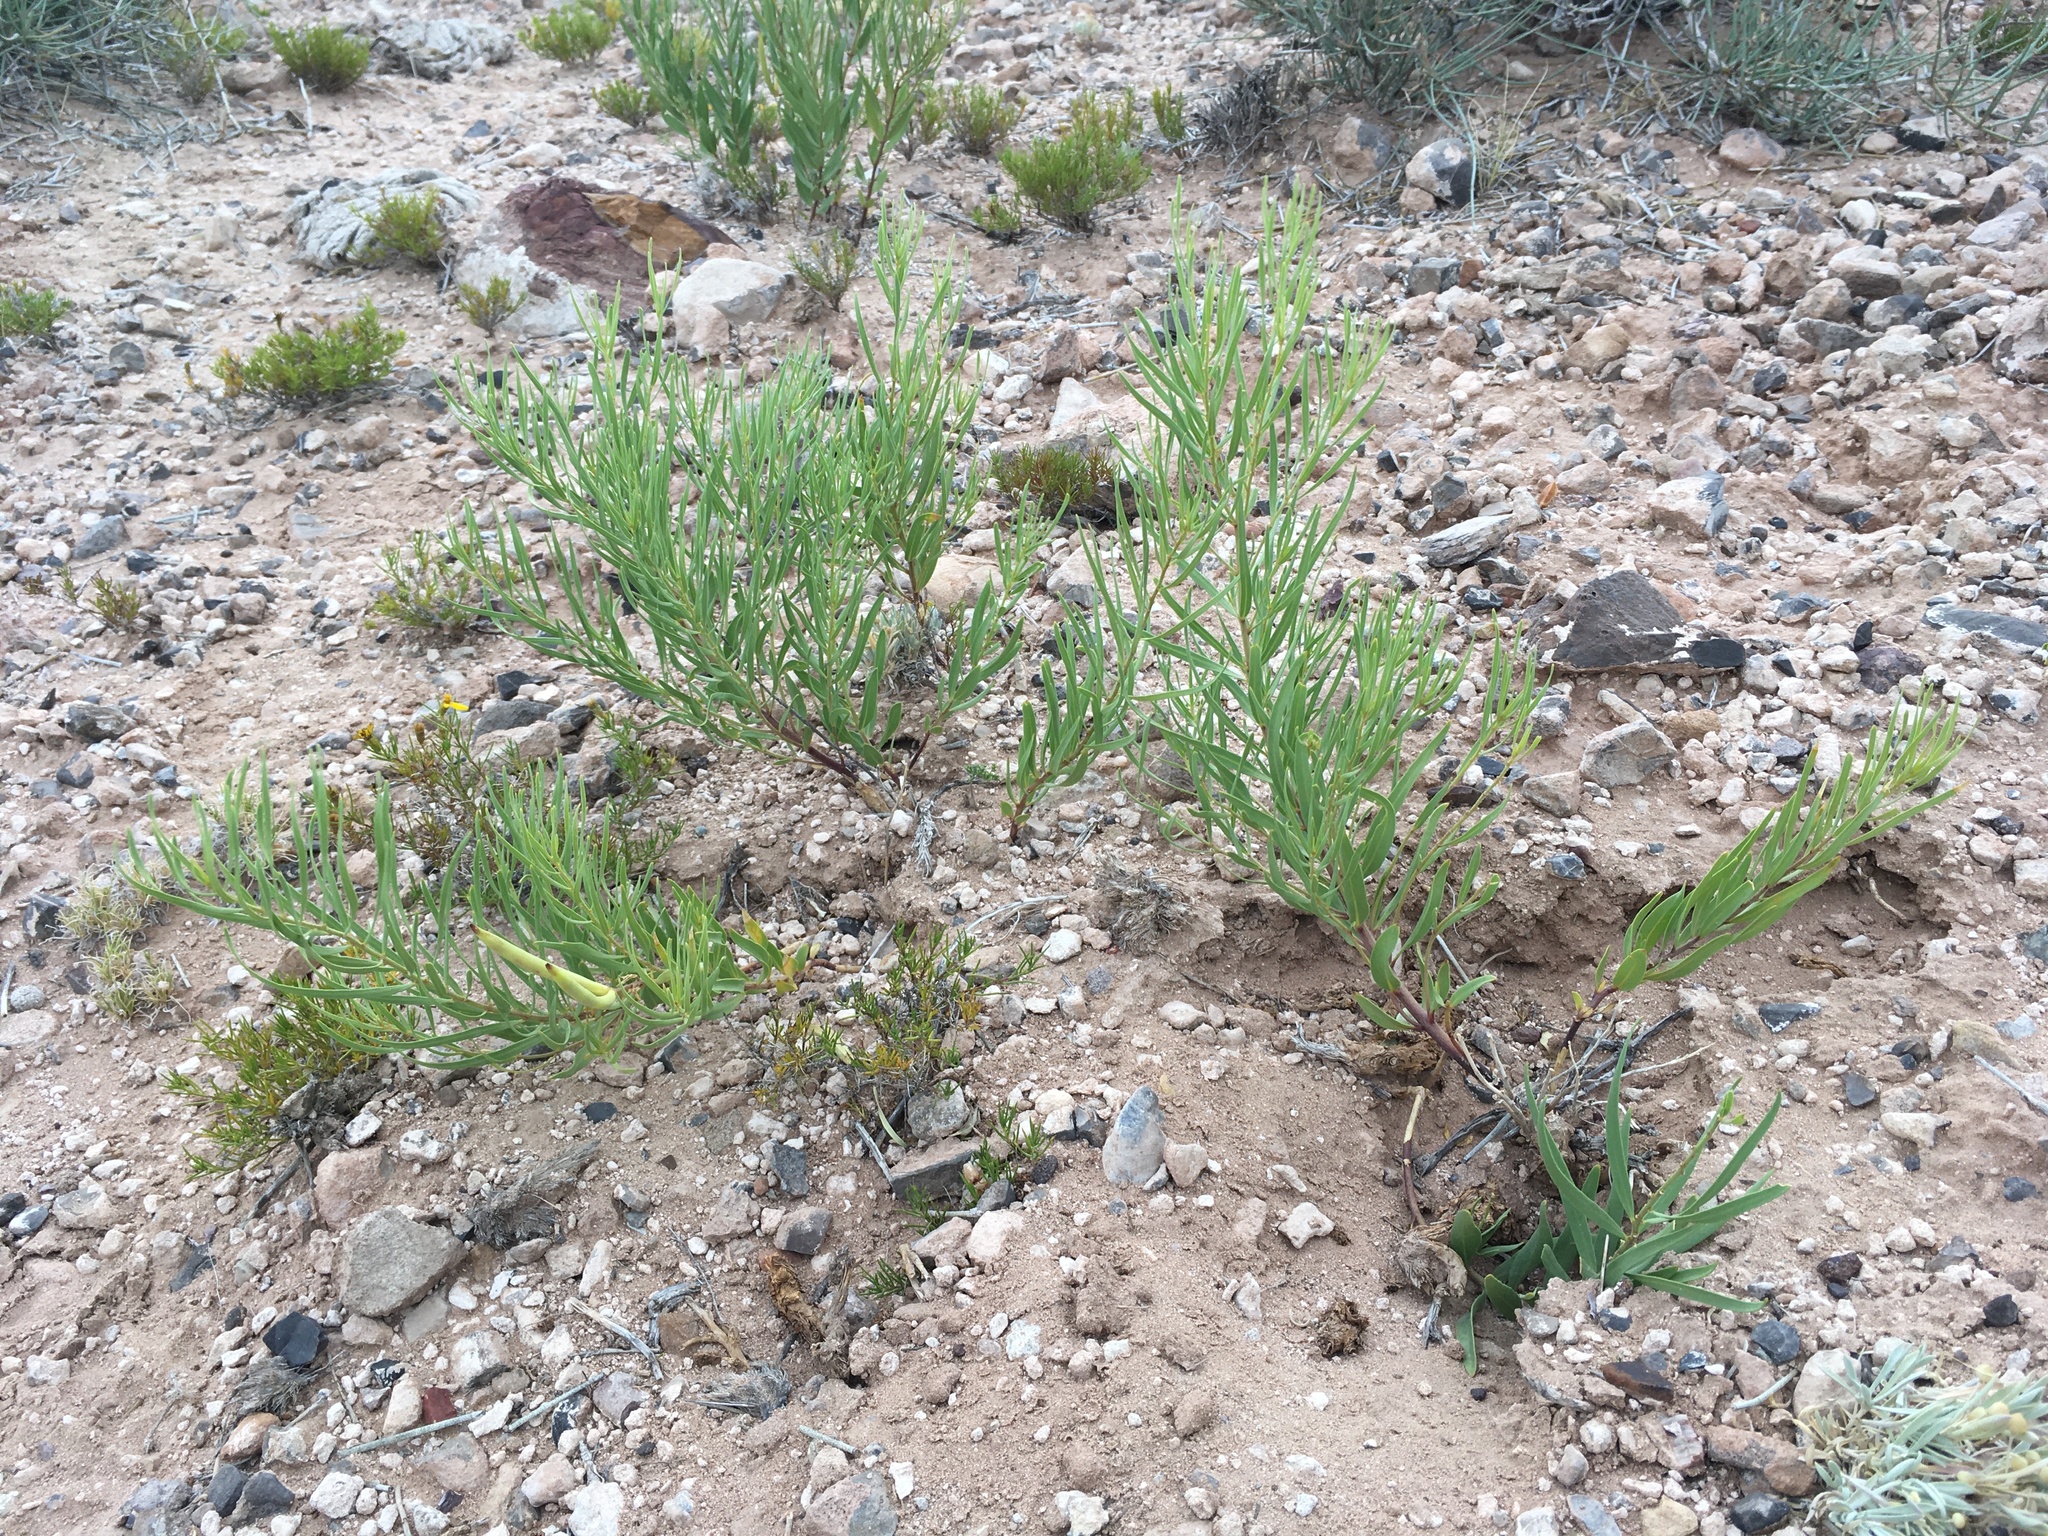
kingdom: Plantae
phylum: Tracheophyta
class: Magnoliopsida
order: Gentianales
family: Apocynaceae
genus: Amsonia
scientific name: Amsonia fugatei
